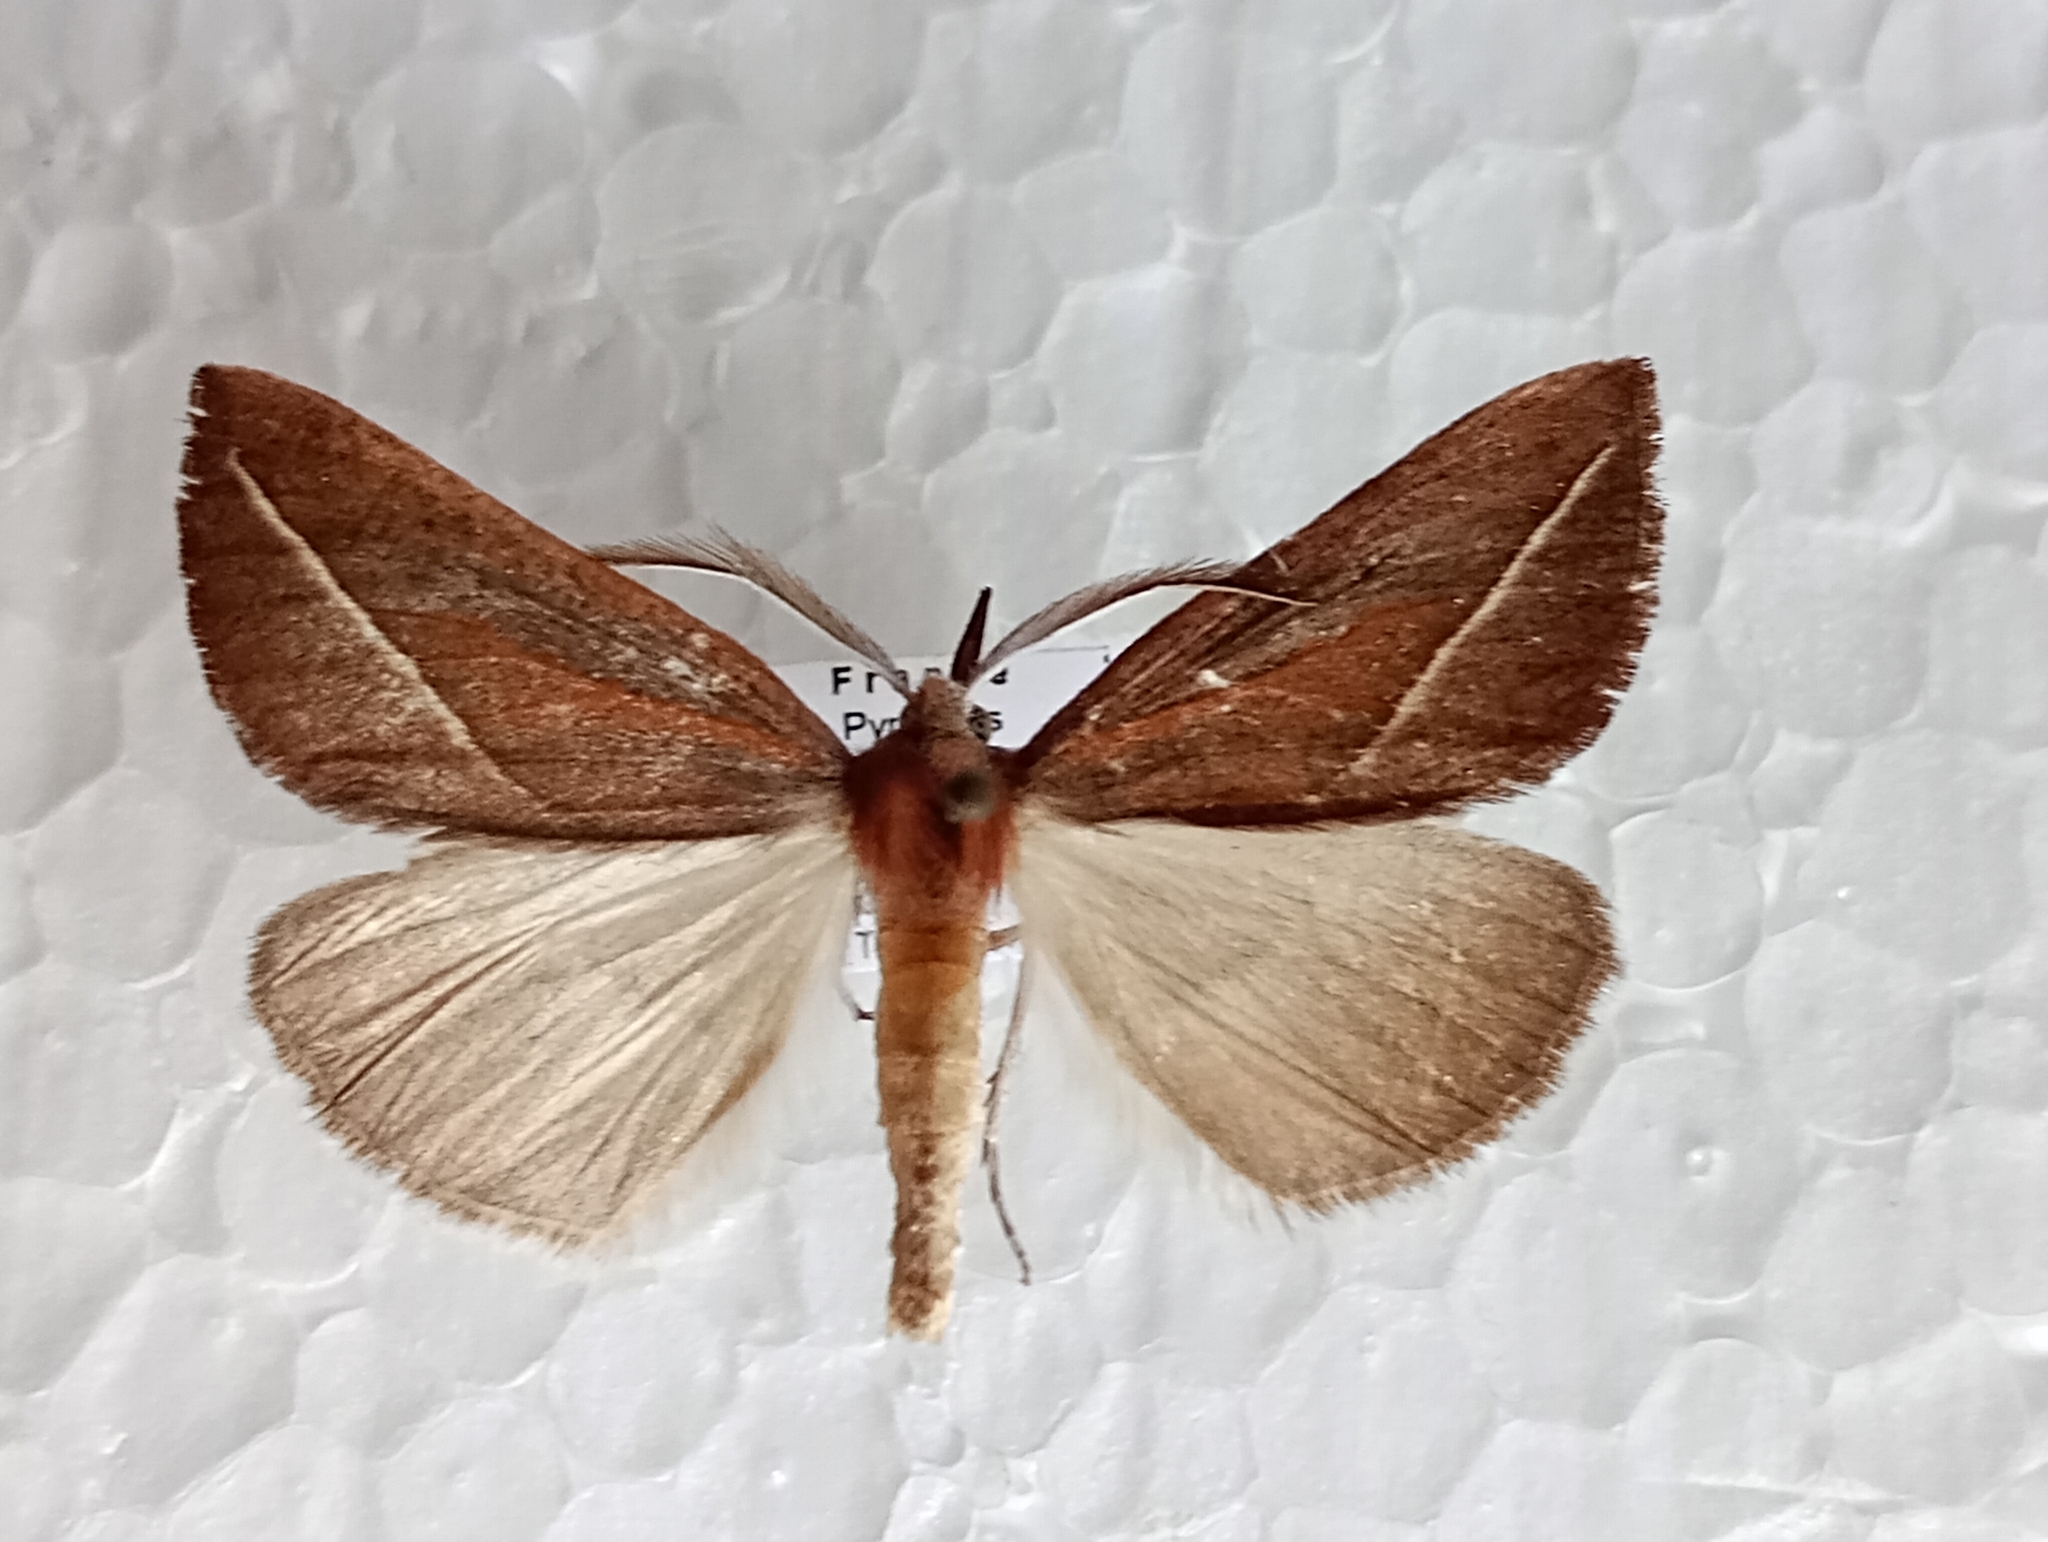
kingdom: Animalia
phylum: Arthropoda
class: Insecta
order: Lepidoptera
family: Geometridae
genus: Compsoptera
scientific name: Compsoptera opacaria
